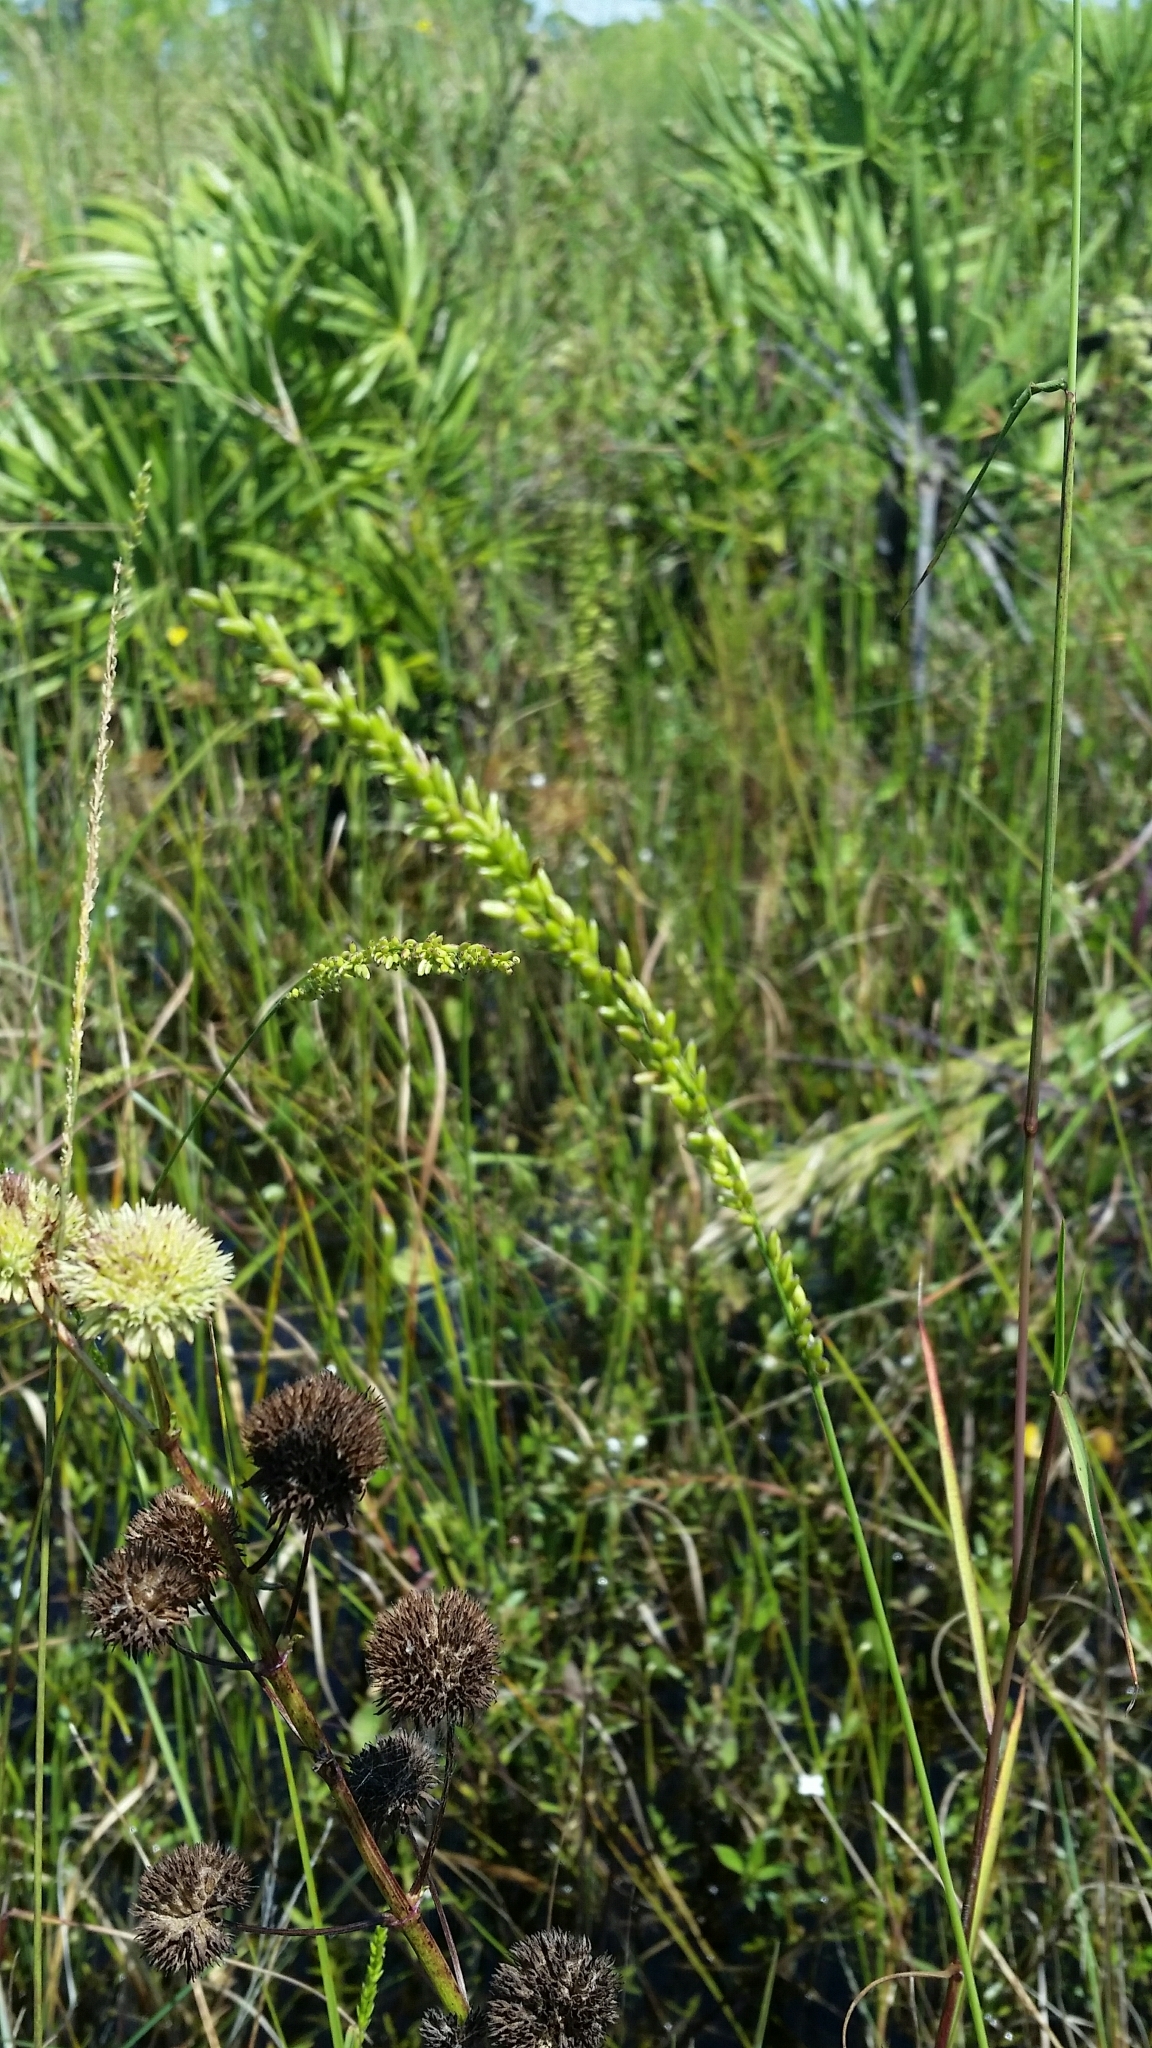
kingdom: Plantae
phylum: Tracheophyta
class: Liliopsida
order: Poales
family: Poaceae
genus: Sacciolepis
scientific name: Sacciolepis striata
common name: American cupscale
